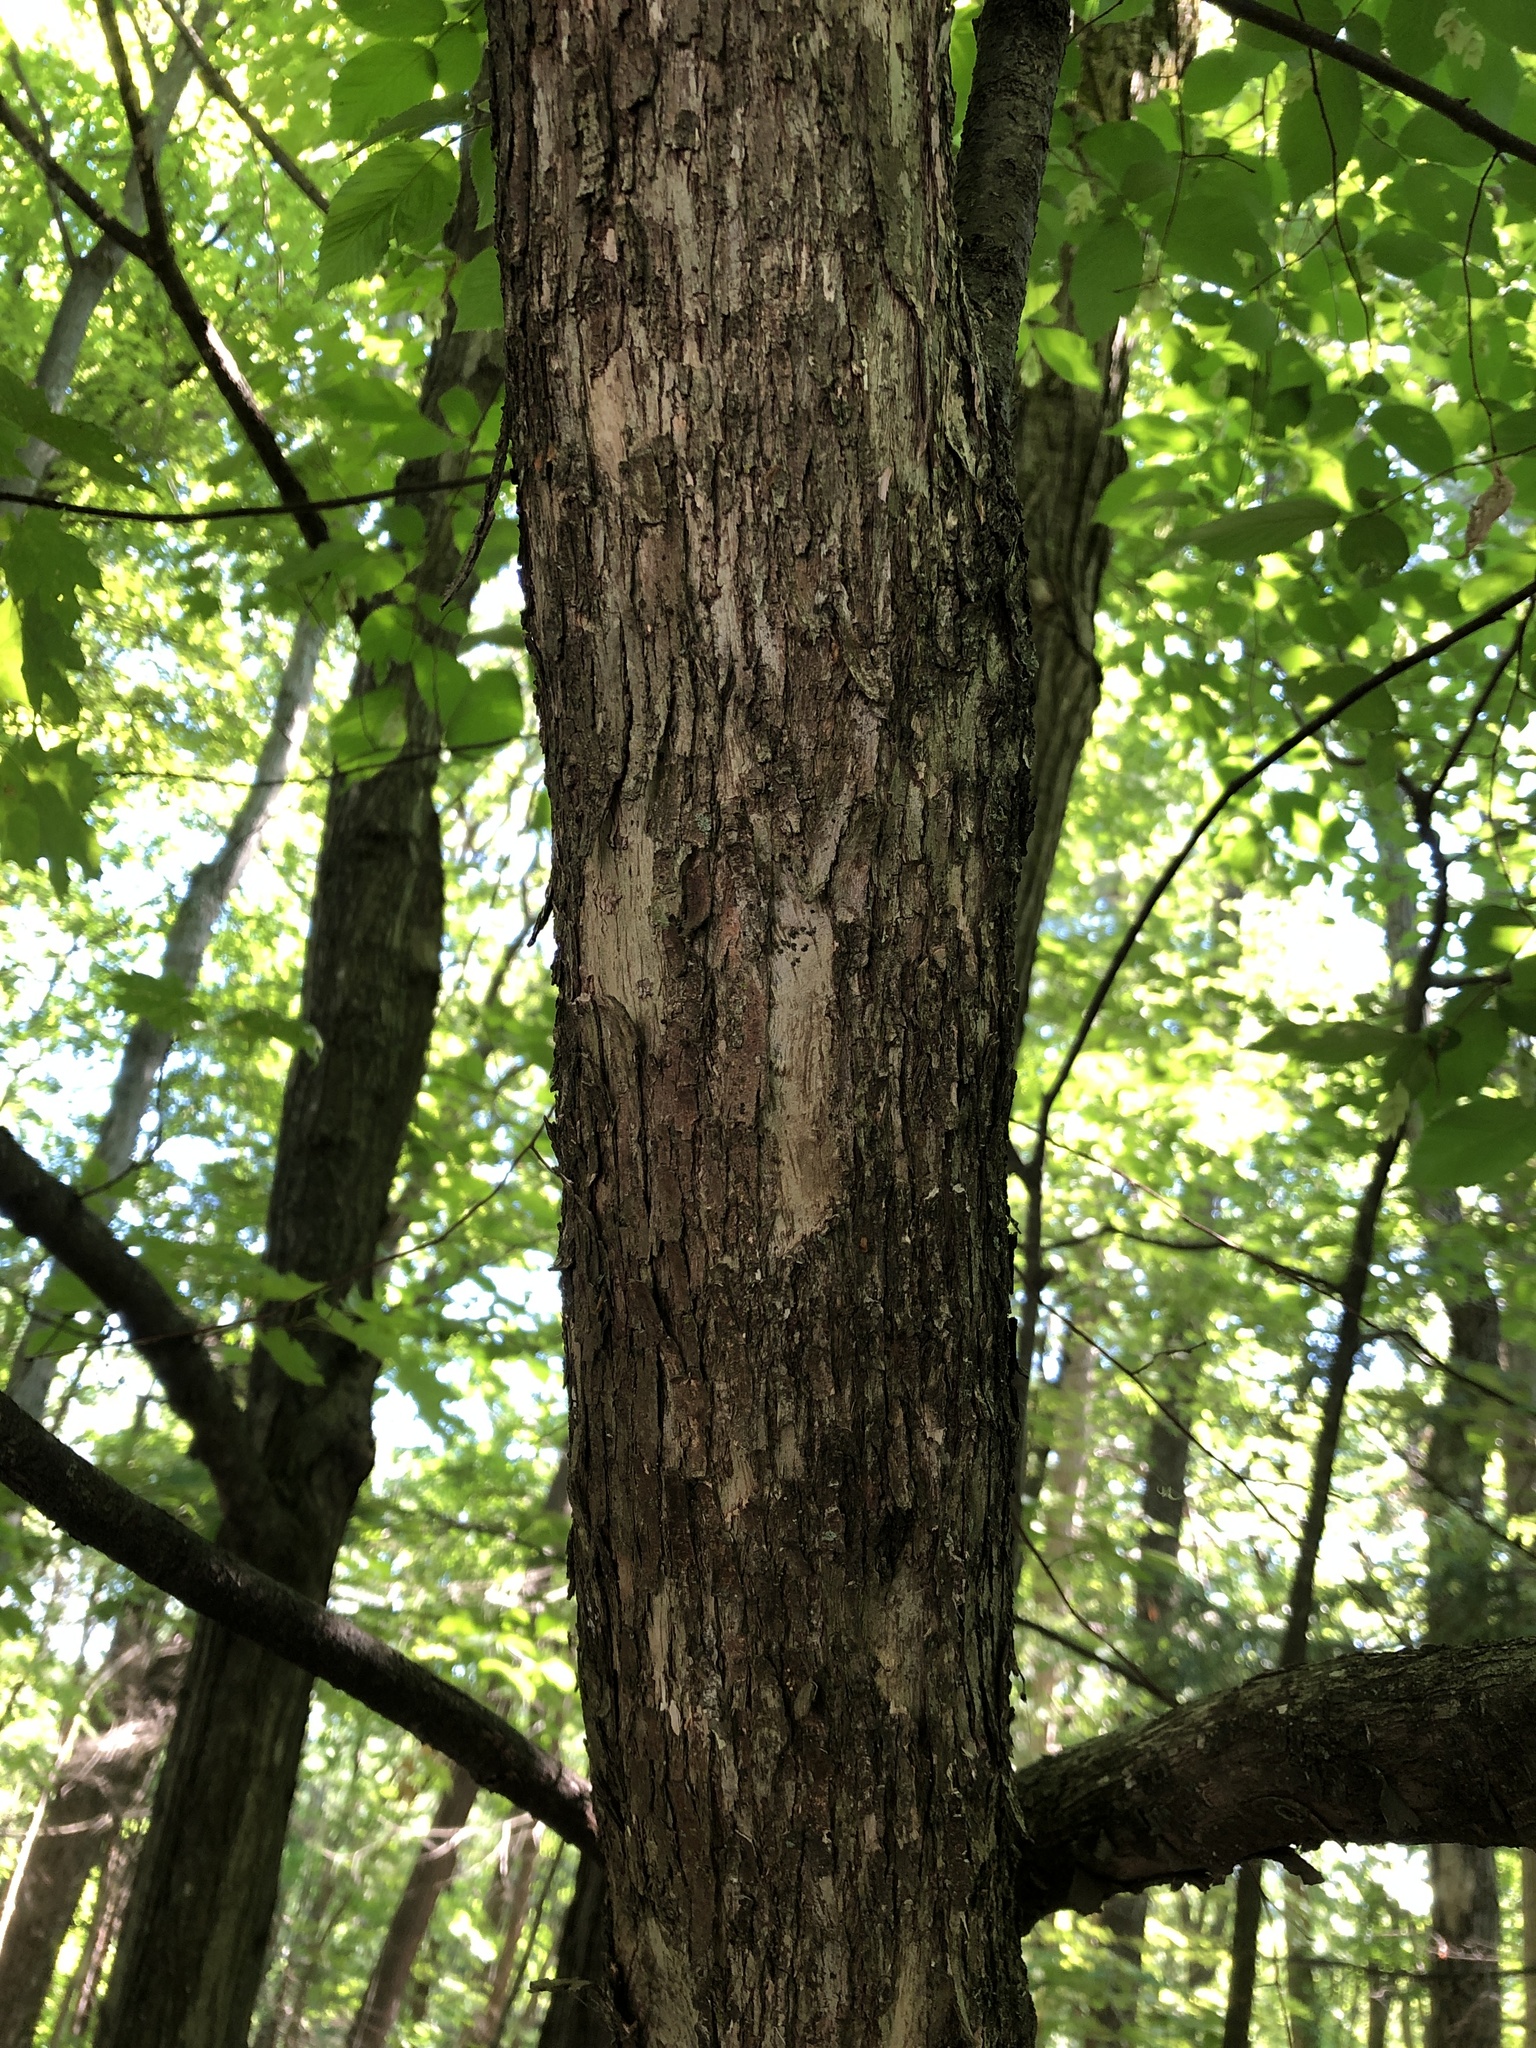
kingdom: Plantae
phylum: Tracheophyta
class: Magnoliopsida
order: Fagales
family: Betulaceae
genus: Ostrya
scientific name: Ostrya virginiana
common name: Ironwood
